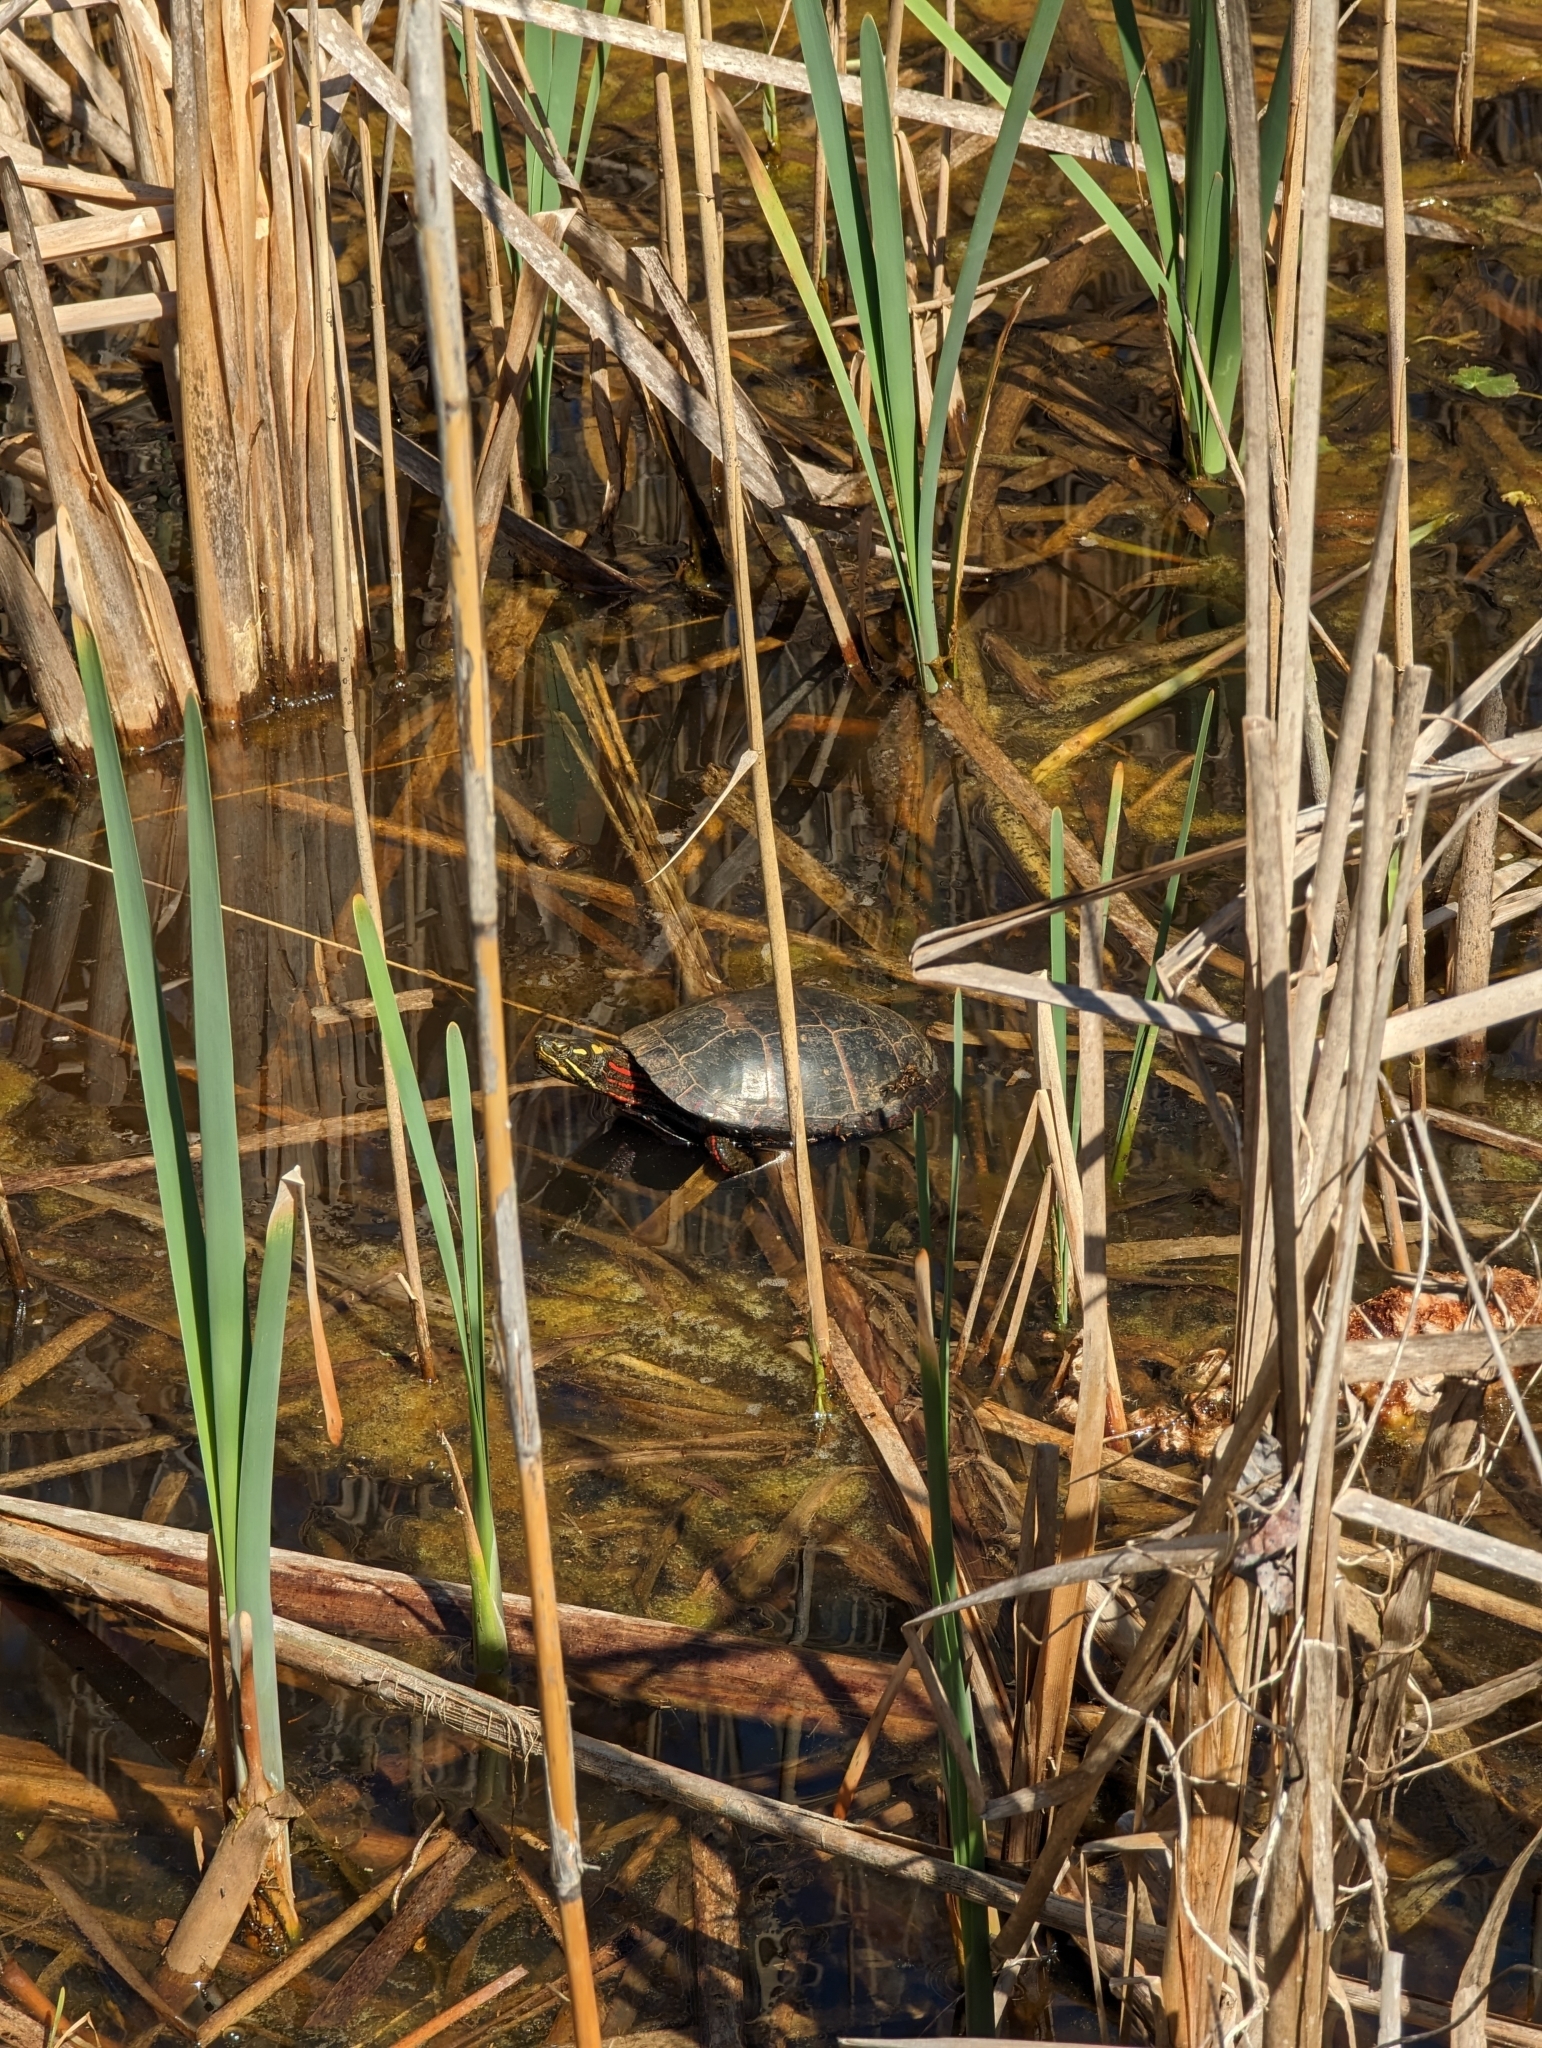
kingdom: Animalia
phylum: Chordata
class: Testudines
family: Emydidae
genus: Chrysemys
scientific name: Chrysemys picta
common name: Painted turtle
